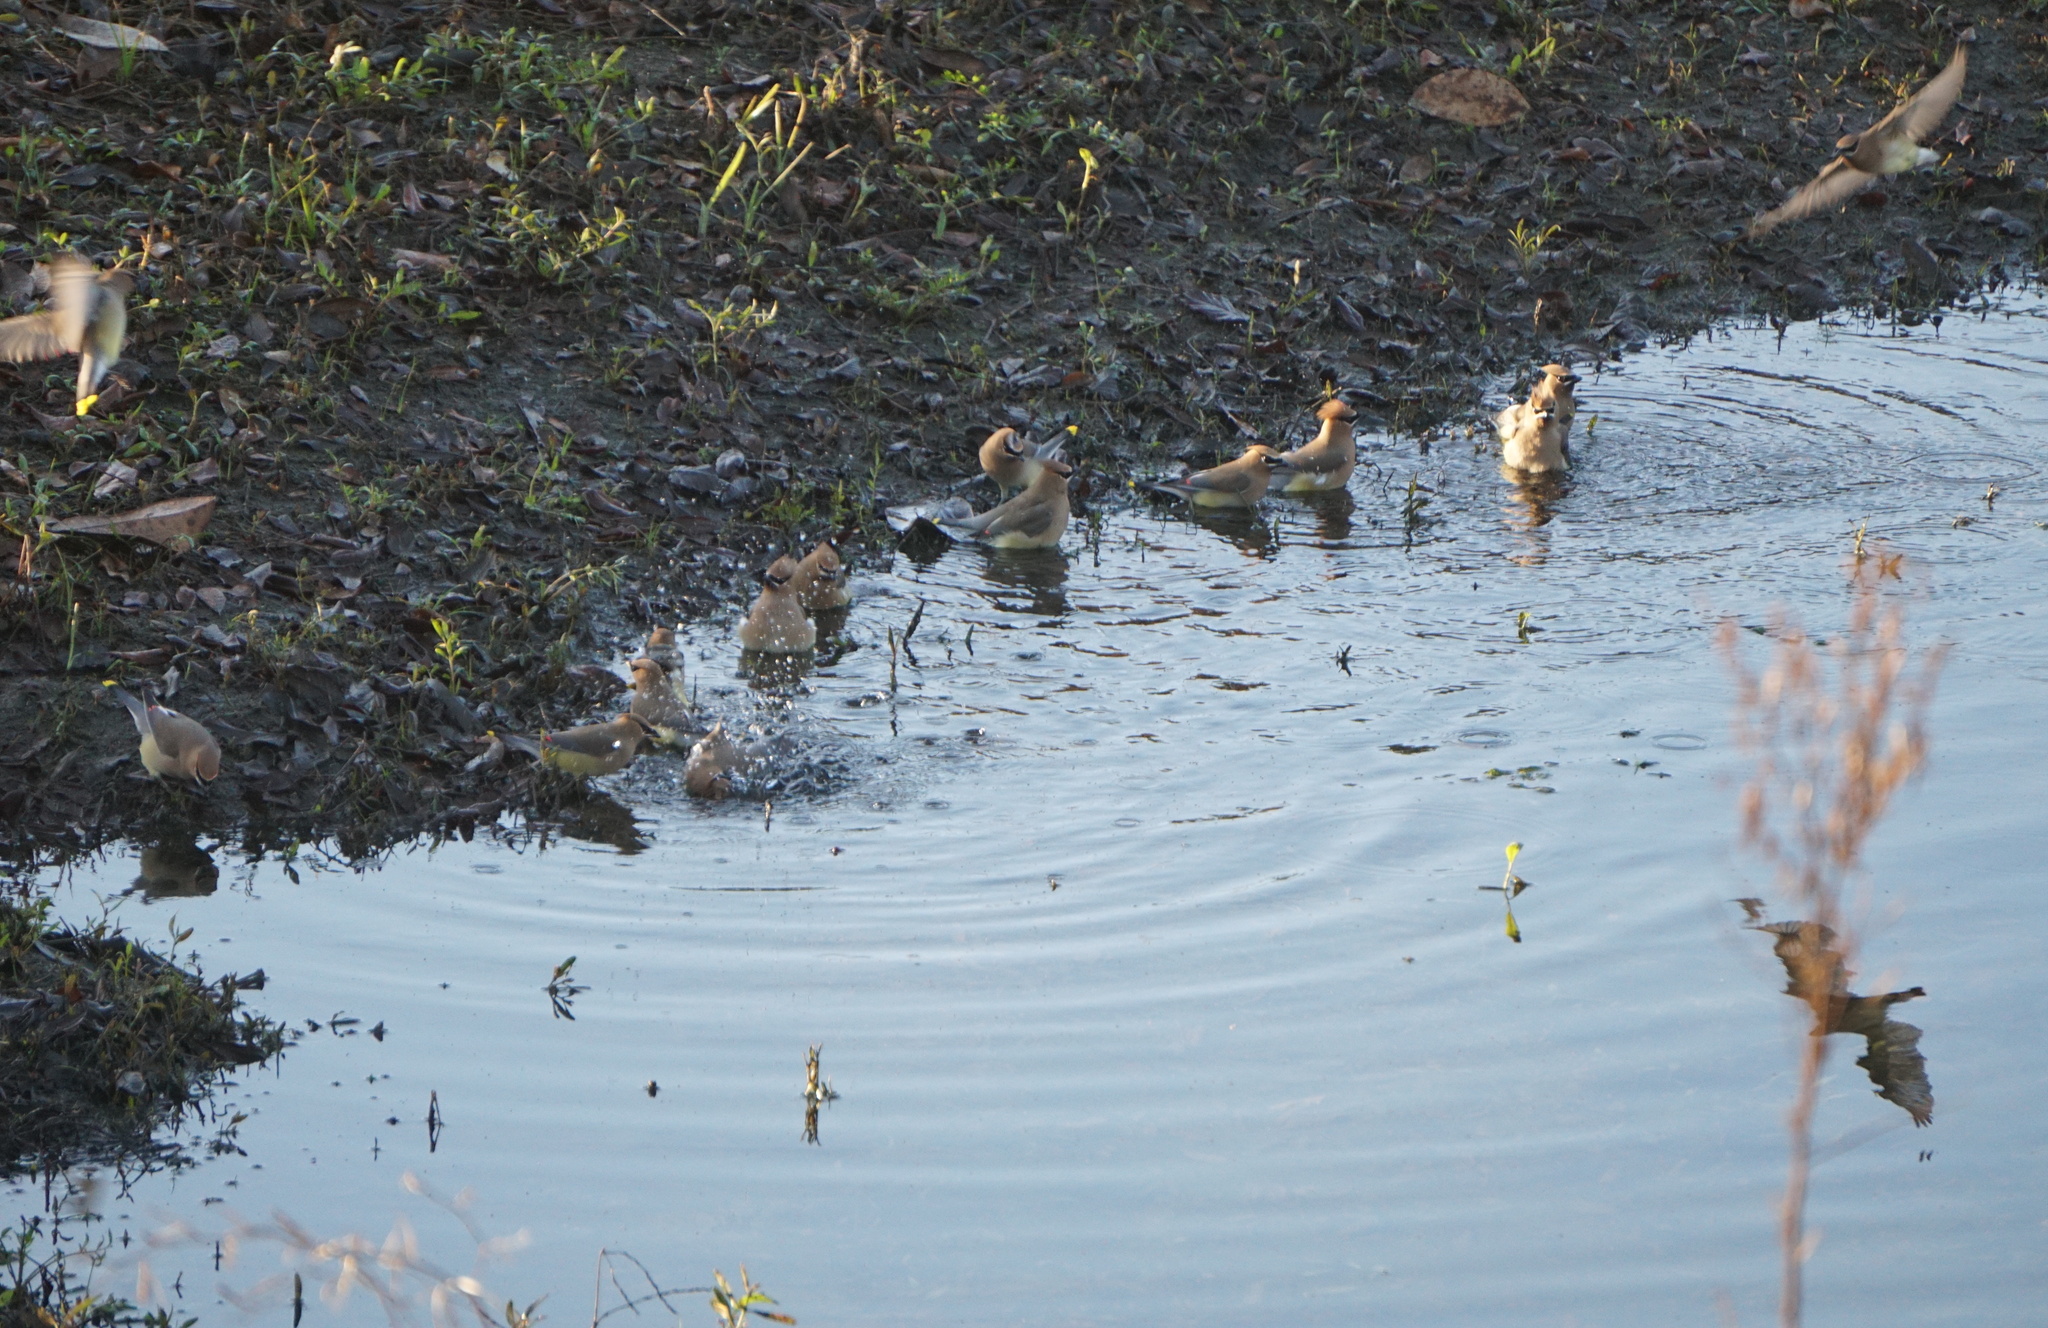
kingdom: Animalia
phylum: Chordata
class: Aves
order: Passeriformes
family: Bombycillidae
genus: Bombycilla
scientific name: Bombycilla cedrorum
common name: Cedar waxwing
